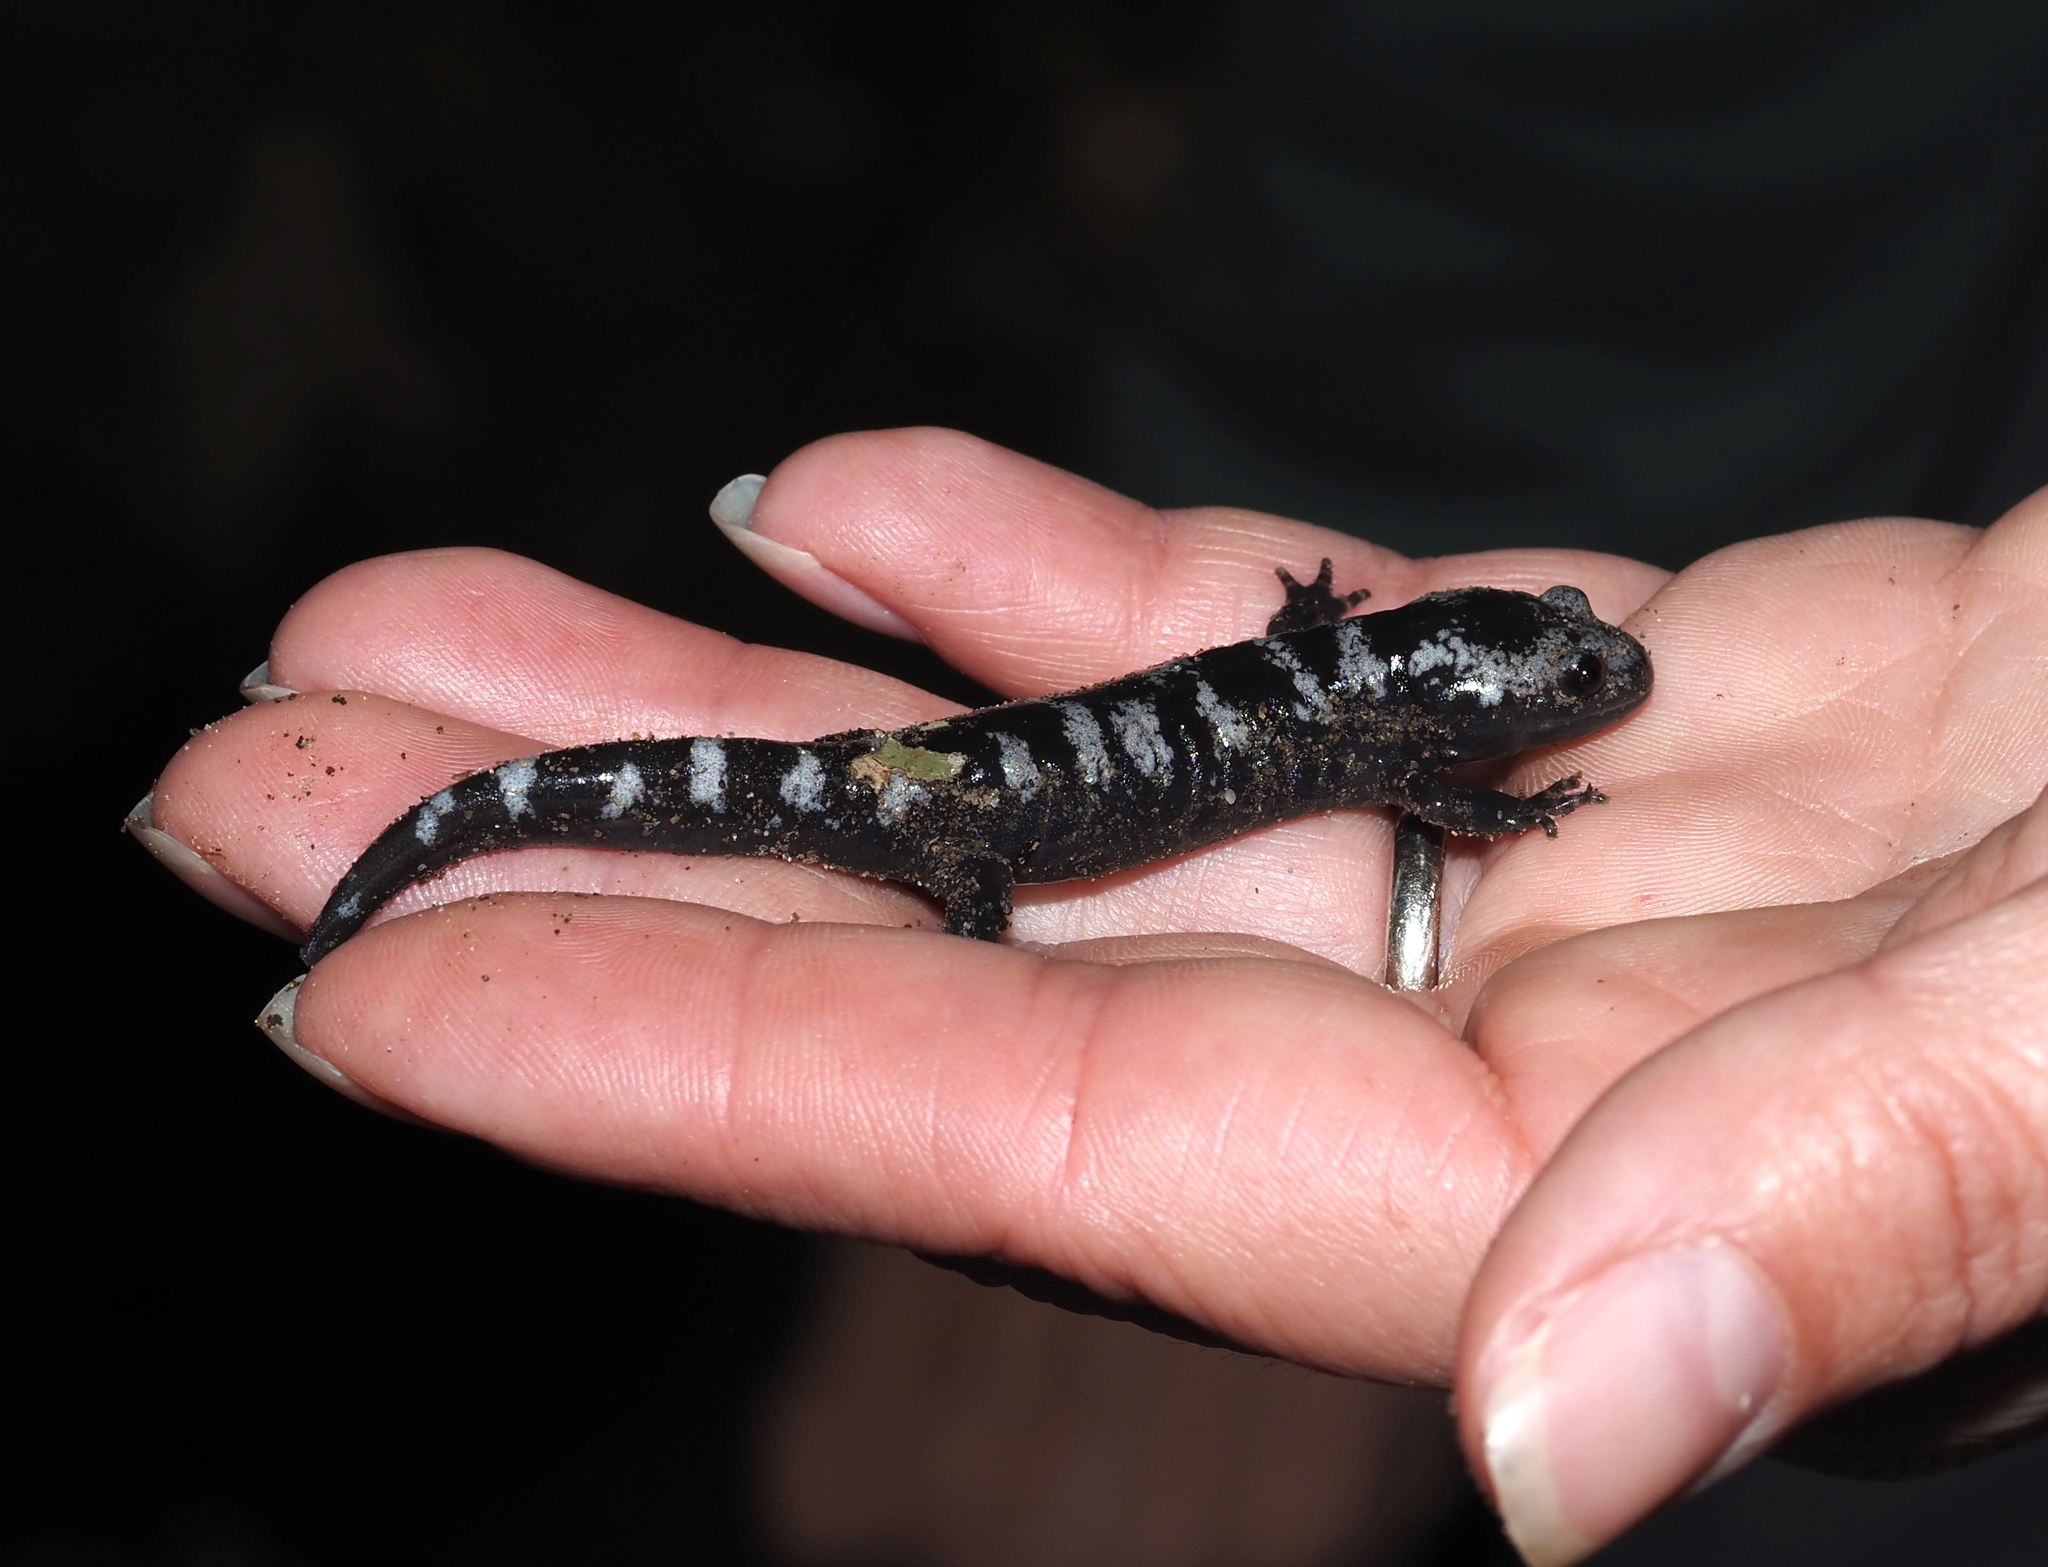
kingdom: Animalia
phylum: Chordata
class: Amphibia
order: Caudata
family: Ambystomatidae
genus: Ambystoma
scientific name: Ambystoma opacum
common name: Marbled salamander
